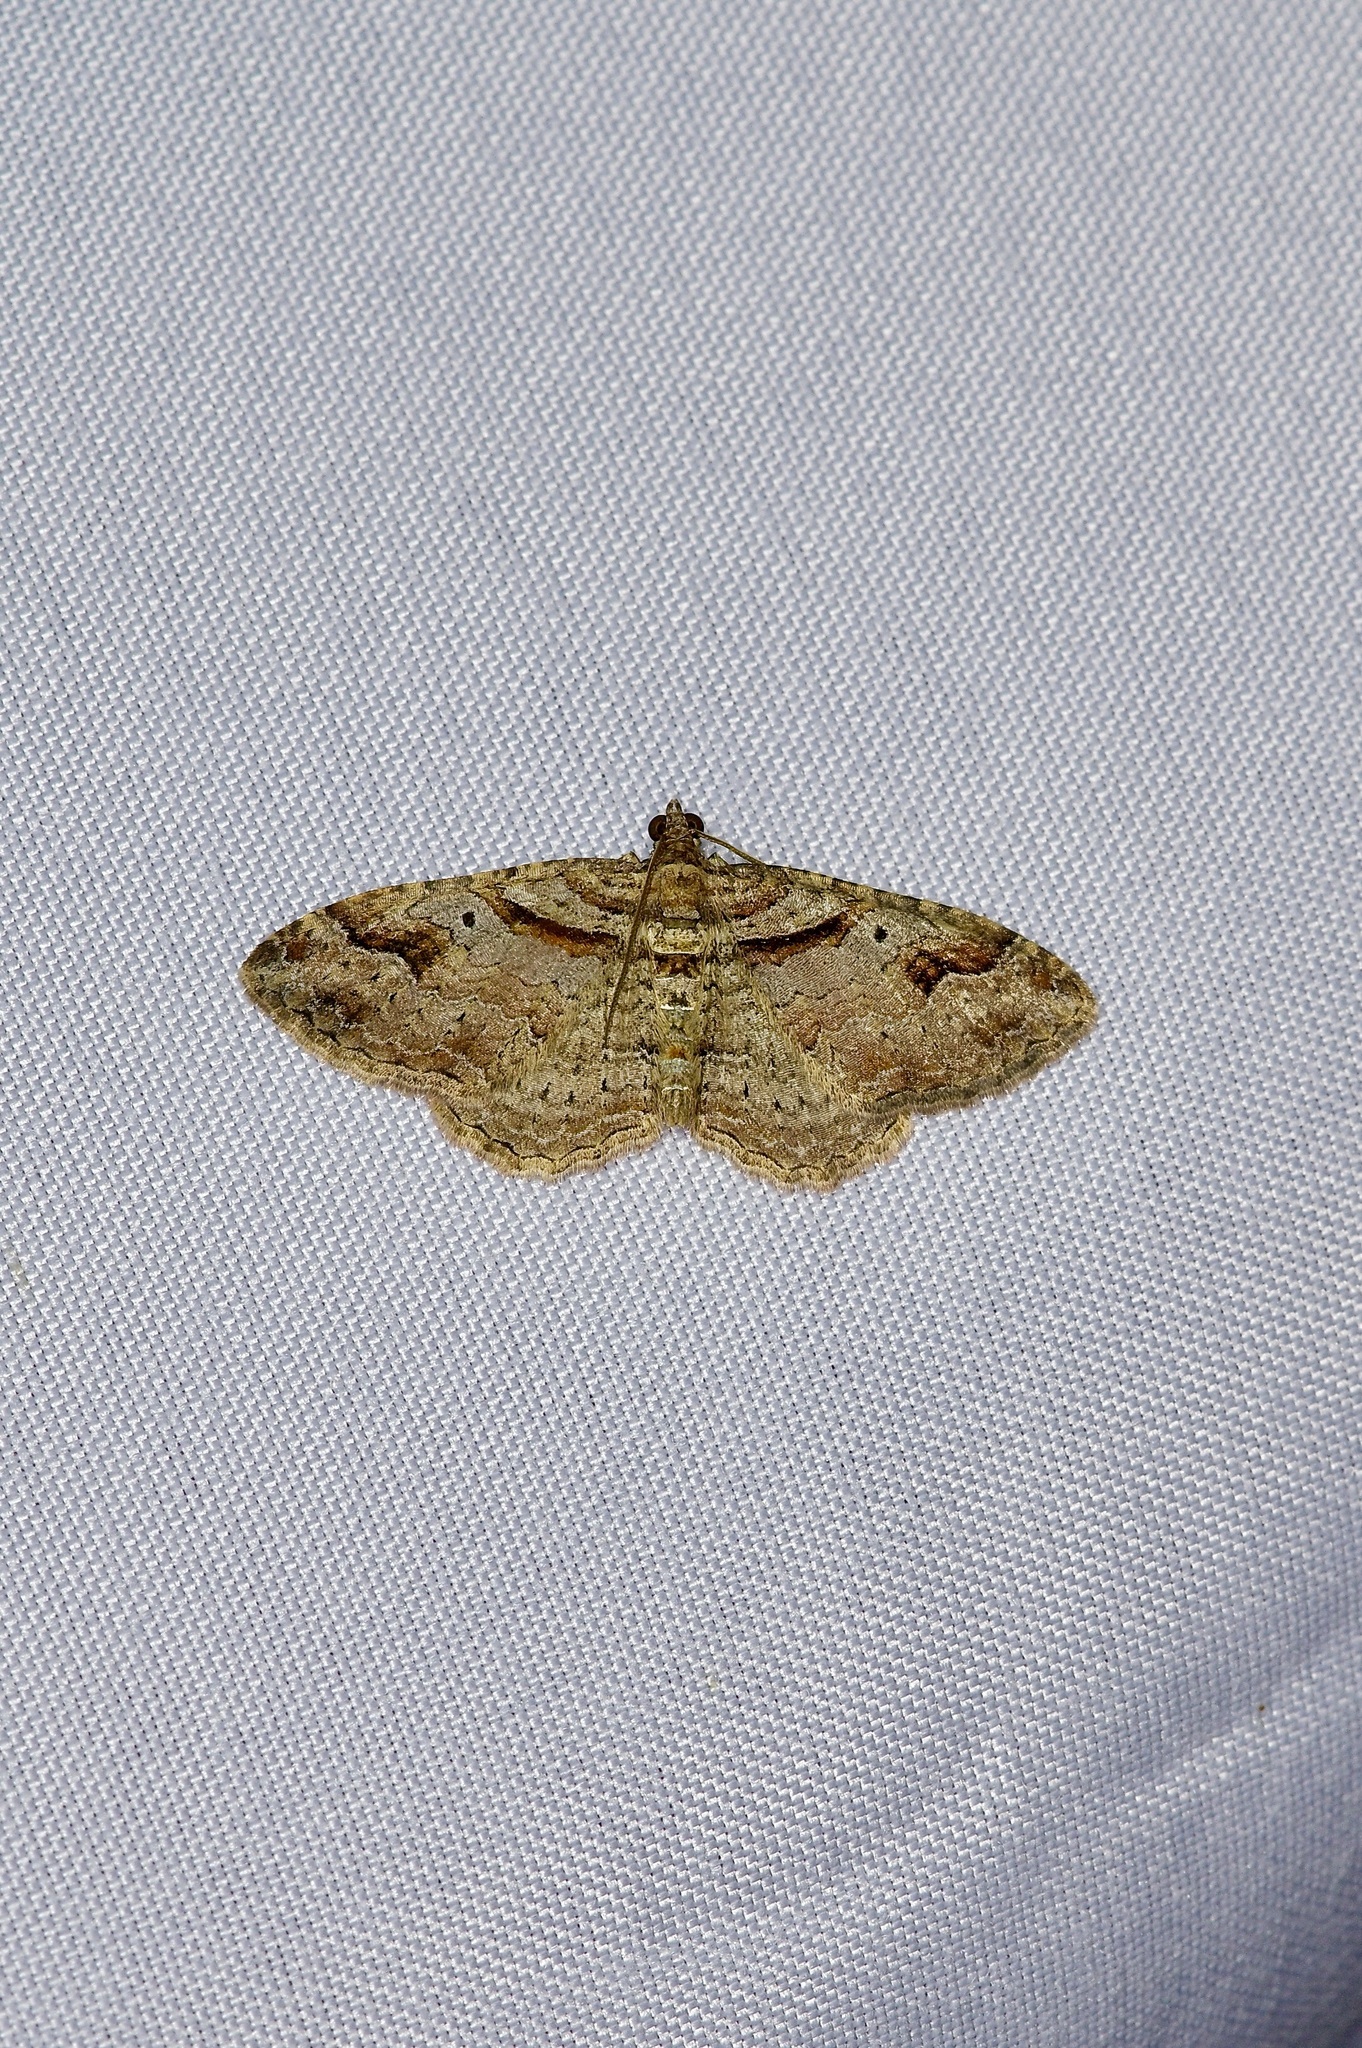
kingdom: Animalia
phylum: Arthropoda
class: Insecta
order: Lepidoptera
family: Geometridae
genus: Costaconvexa
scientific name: Costaconvexa centrostrigaria
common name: Bent-line carpet
